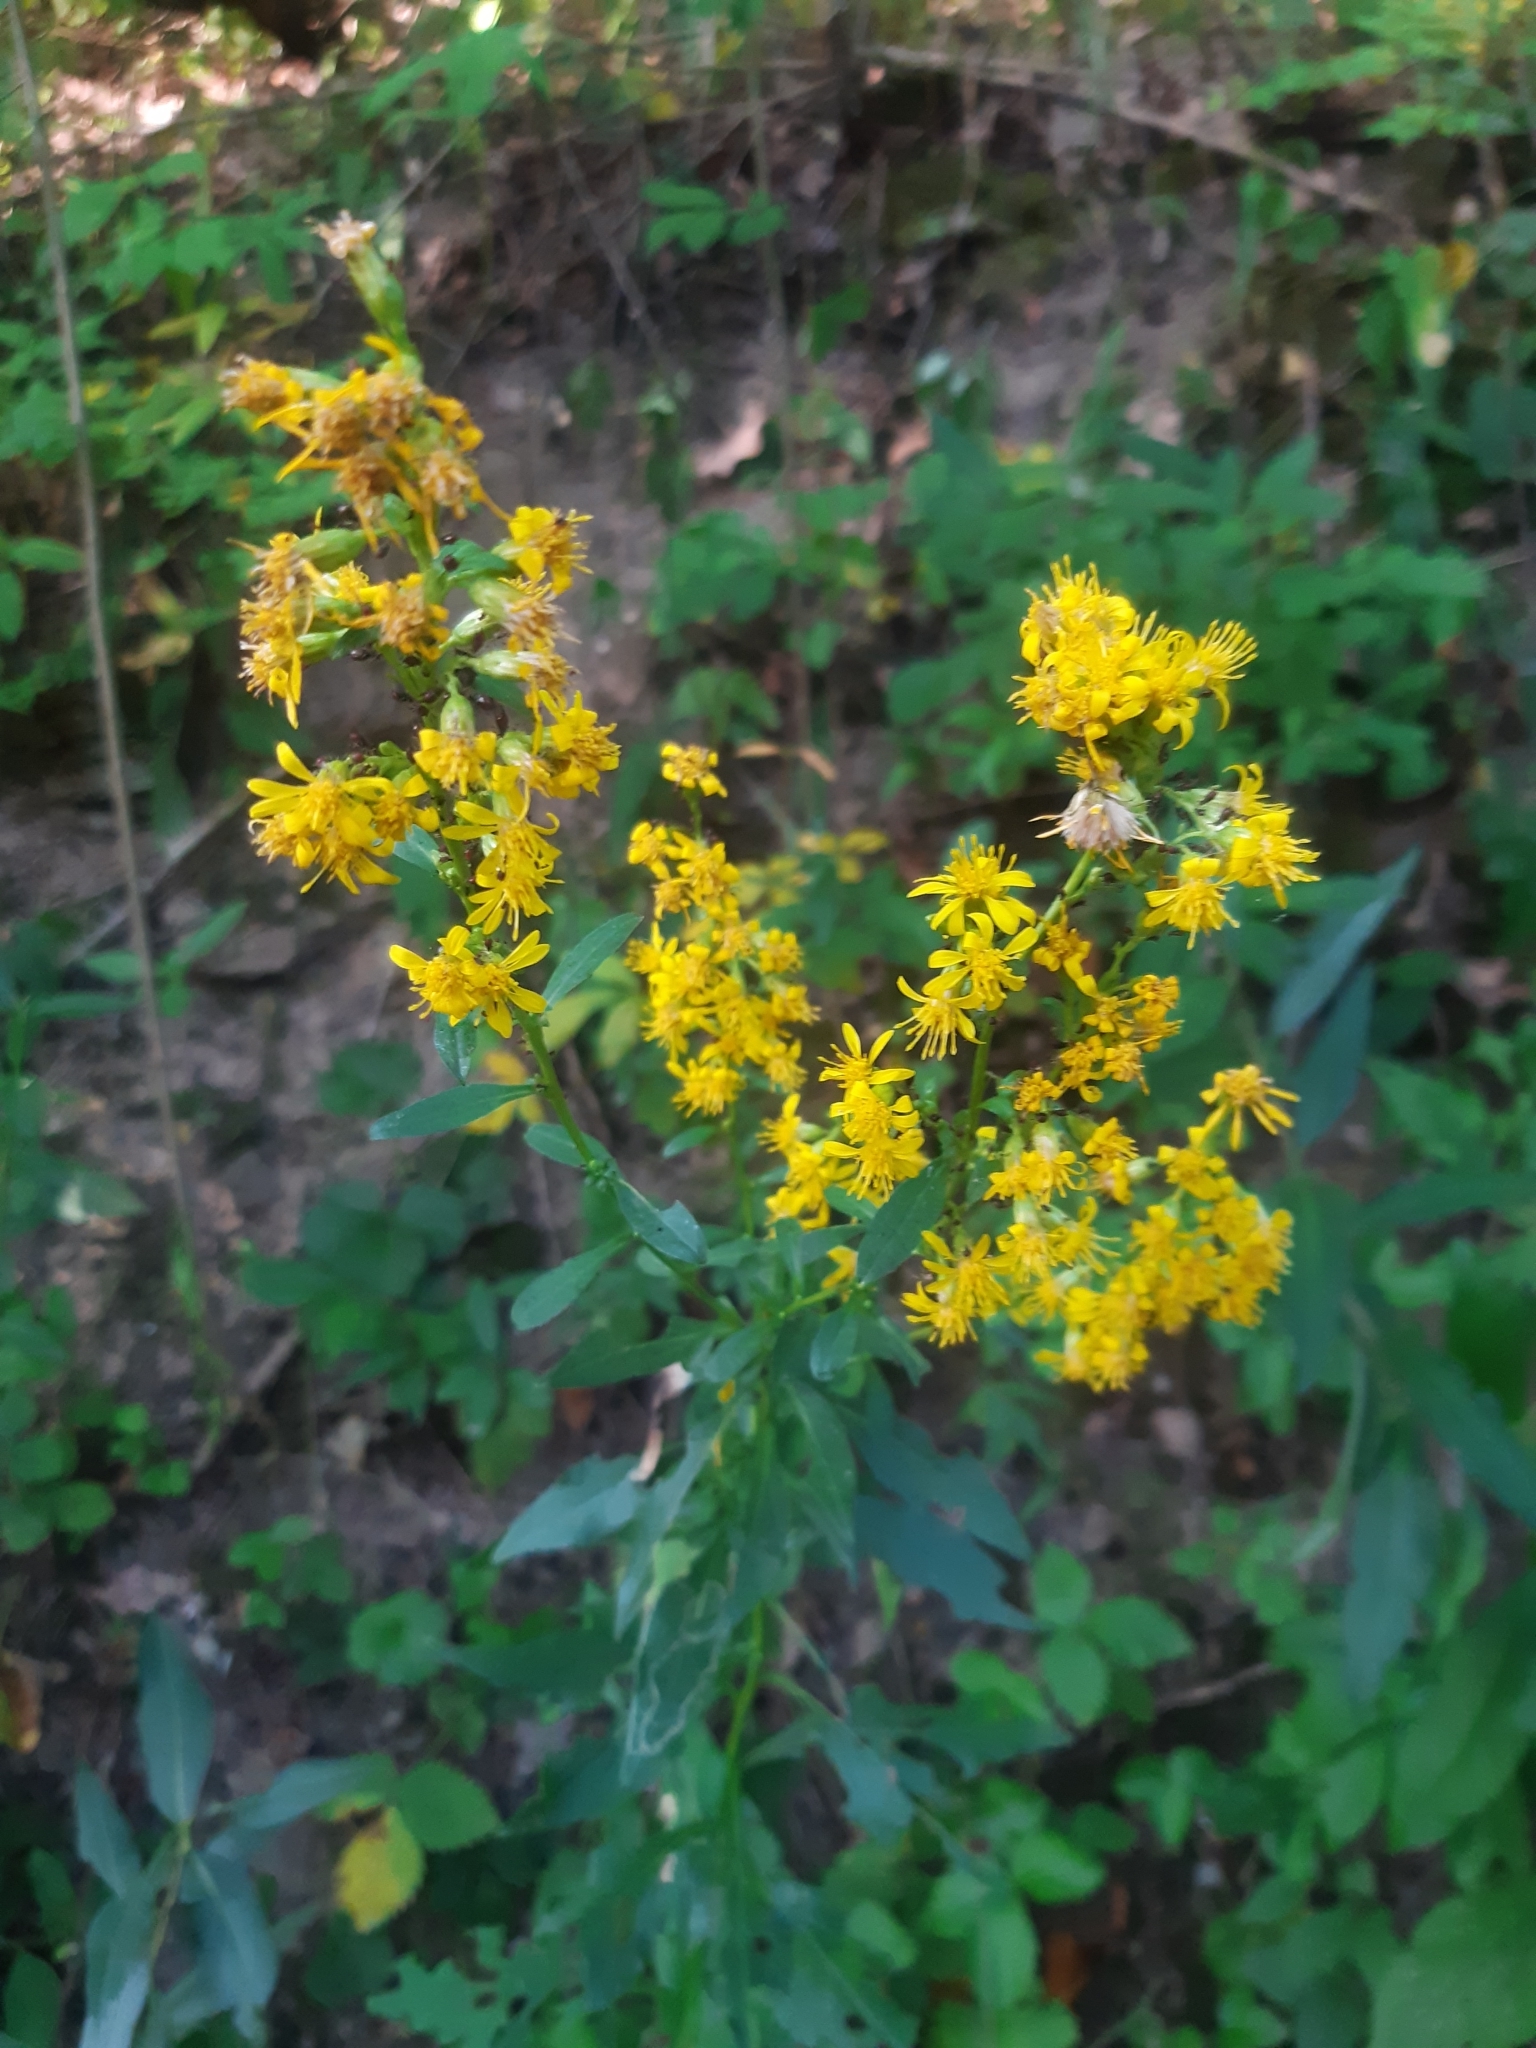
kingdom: Plantae
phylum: Tracheophyta
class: Magnoliopsida
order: Asterales
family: Asteraceae
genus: Solidago
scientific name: Solidago virgaurea
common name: Goldenrod
